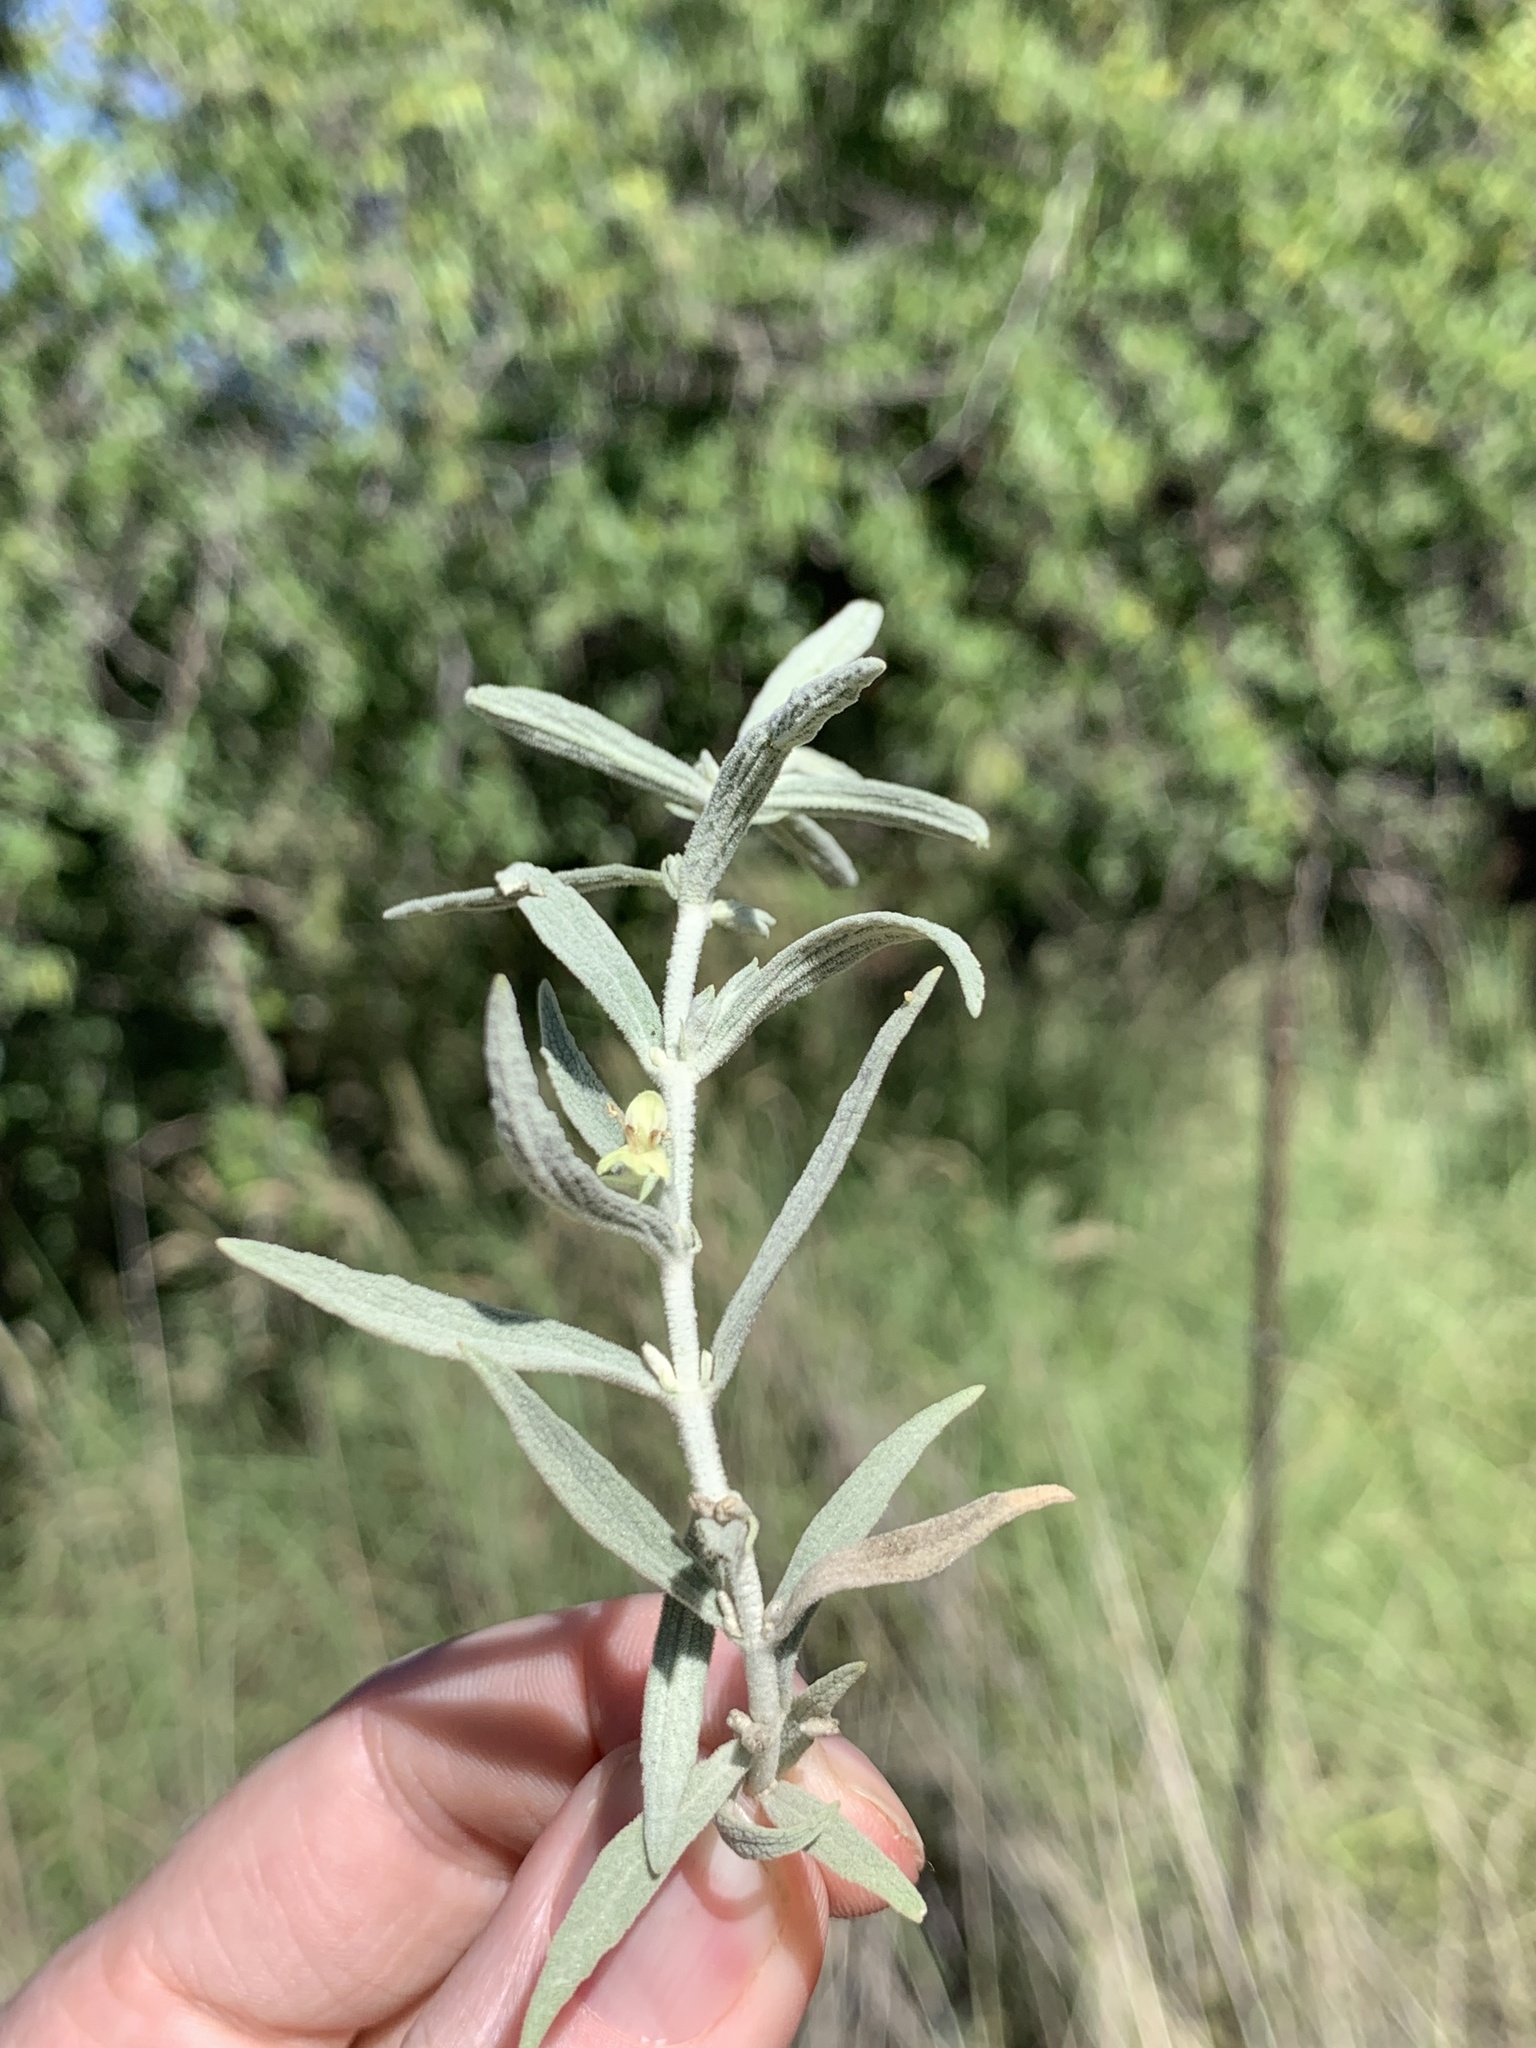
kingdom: Plantae
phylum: Tracheophyta
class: Magnoliopsida
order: Lamiales
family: Lamiaceae
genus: Stachys
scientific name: Stachys burchelliana
